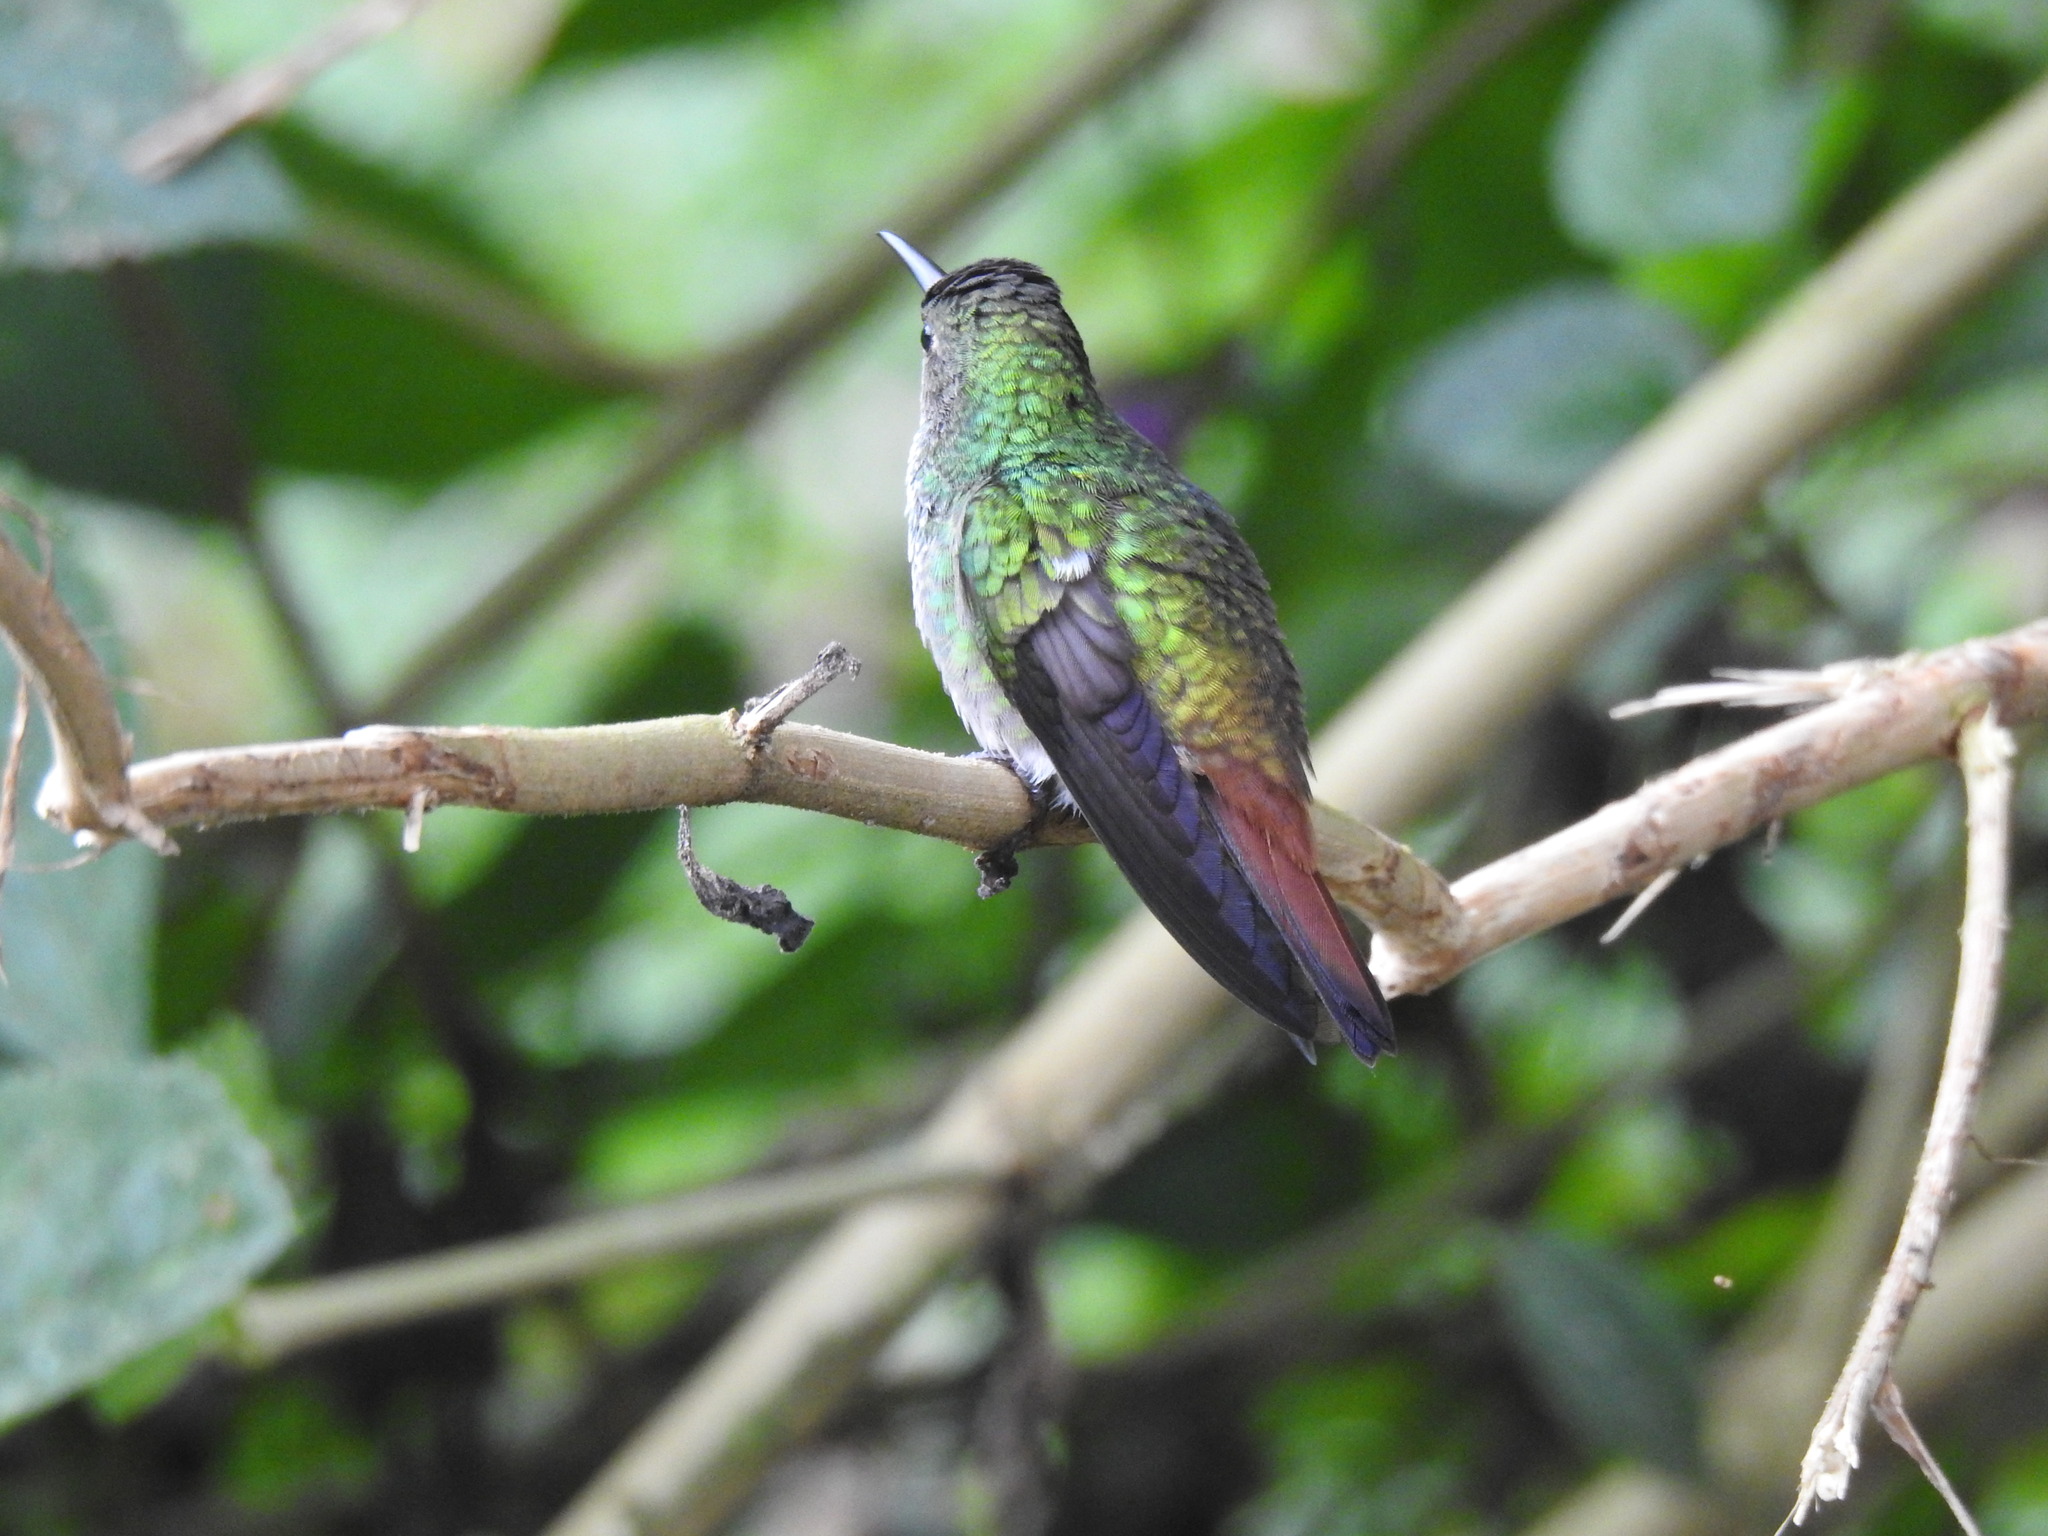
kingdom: Animalia
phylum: Chordata
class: Aves
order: Apodiformes
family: Trochilidae
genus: Amazilia
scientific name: Amazilia tzacatl
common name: Rufous-tailed hummingbird
